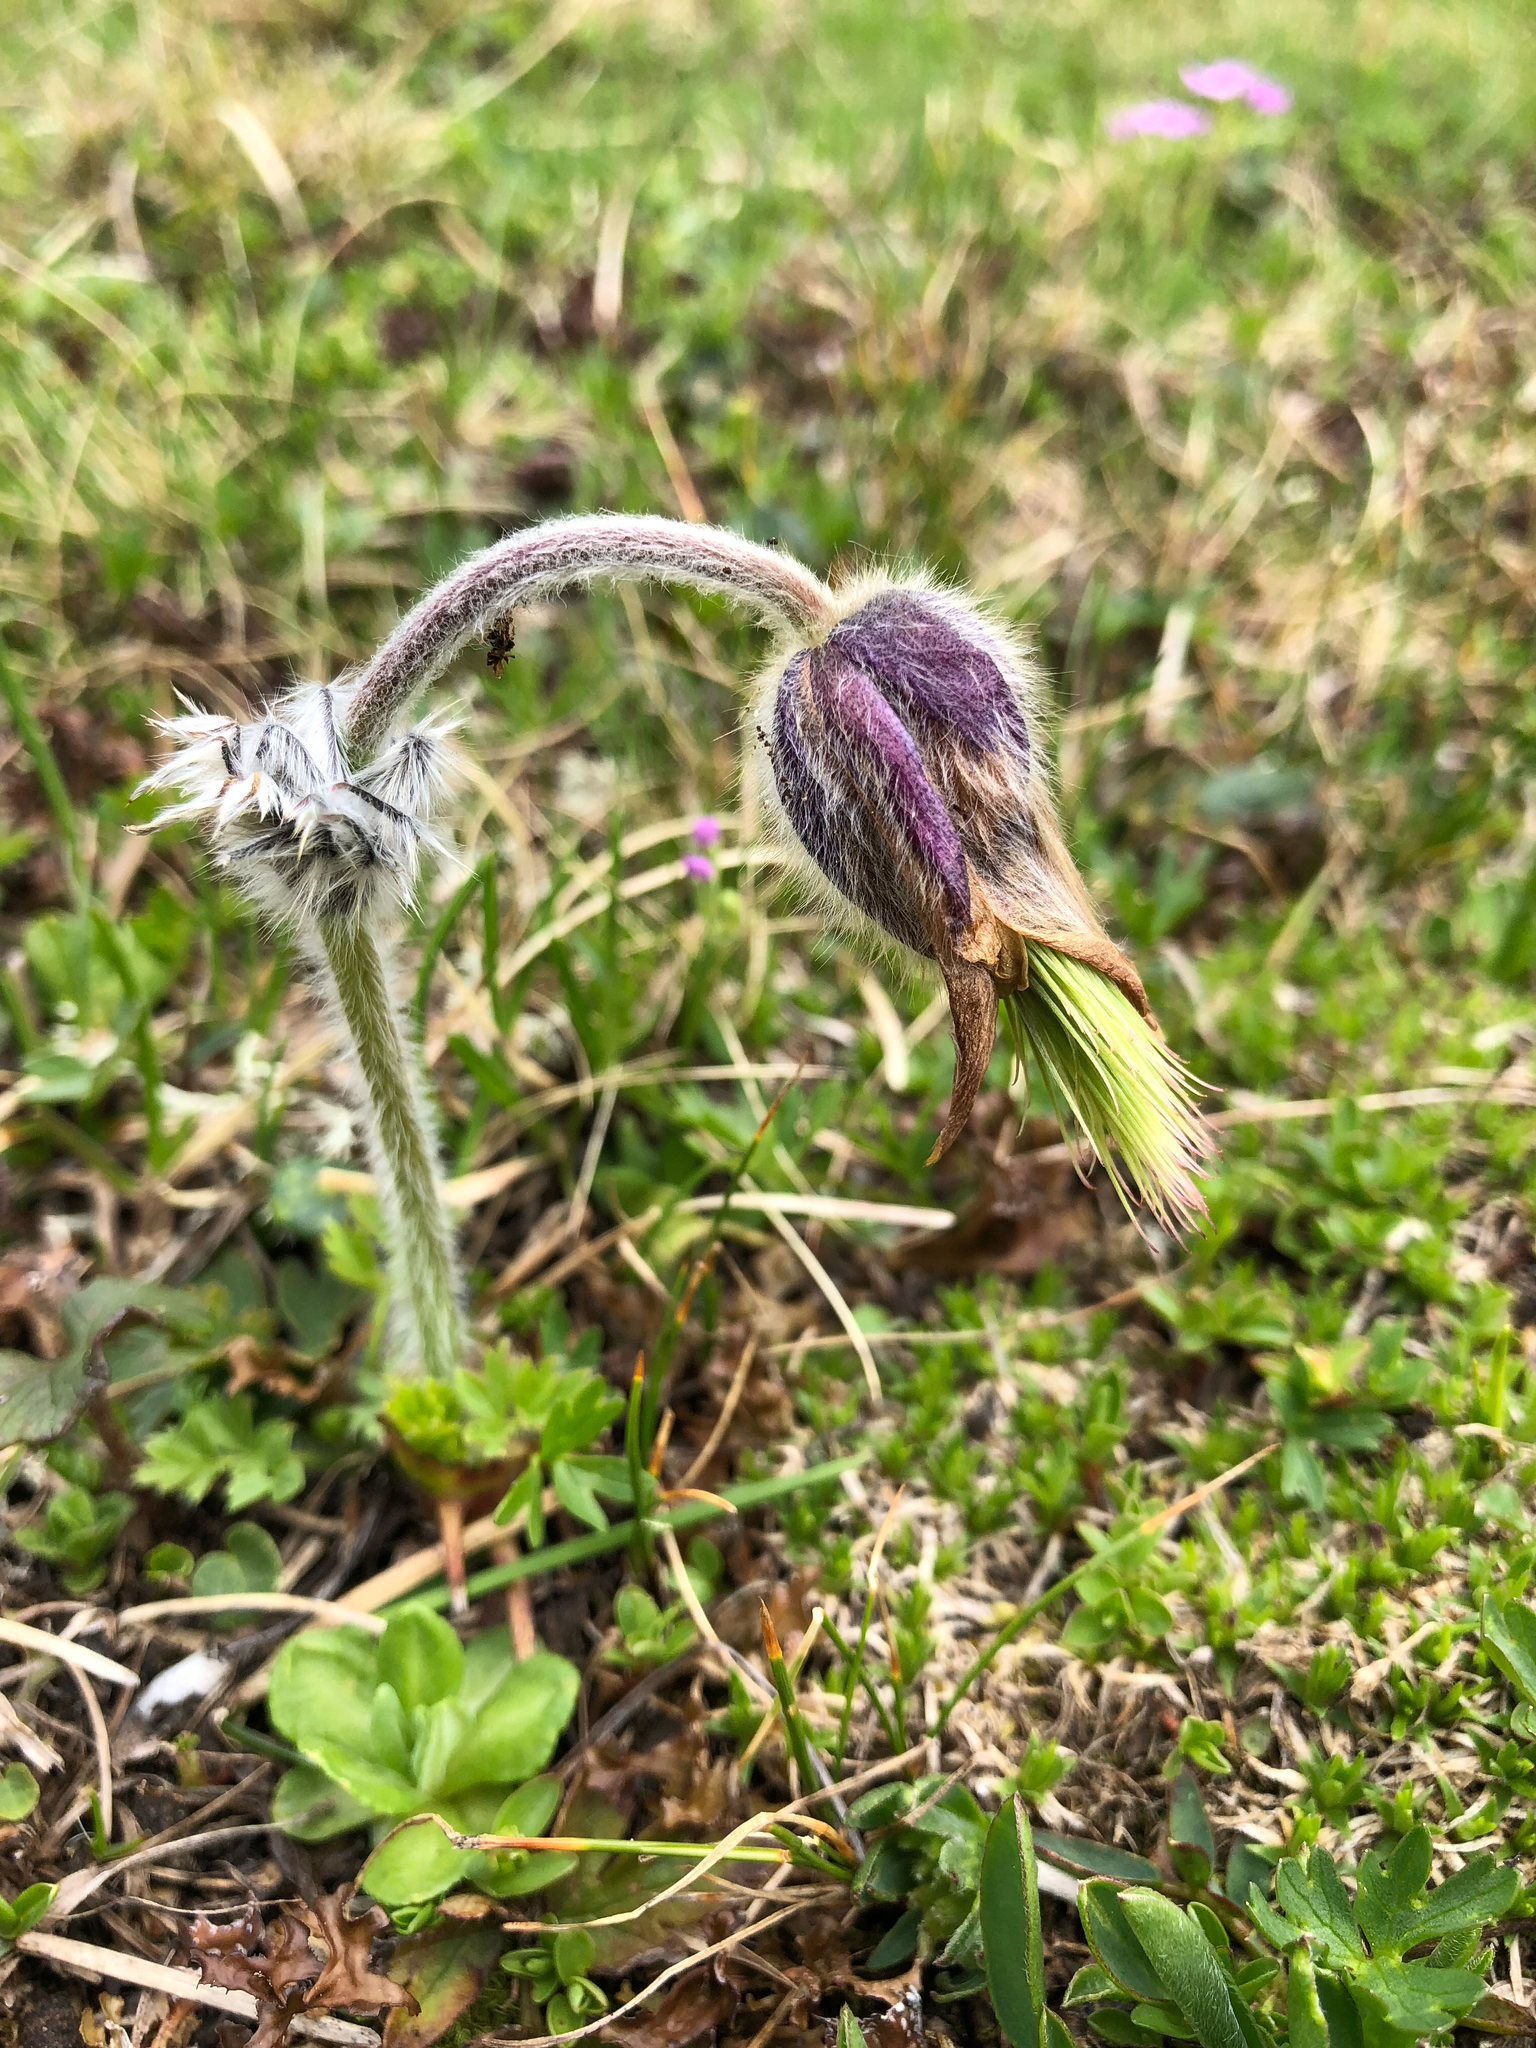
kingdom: Plantae
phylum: Tracheophyta
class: Magnoliopsida
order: Ranunculales
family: Ranunculaceae
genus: Pulsatilla
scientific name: Pulsatilla vernalis
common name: Spring pasque flower
